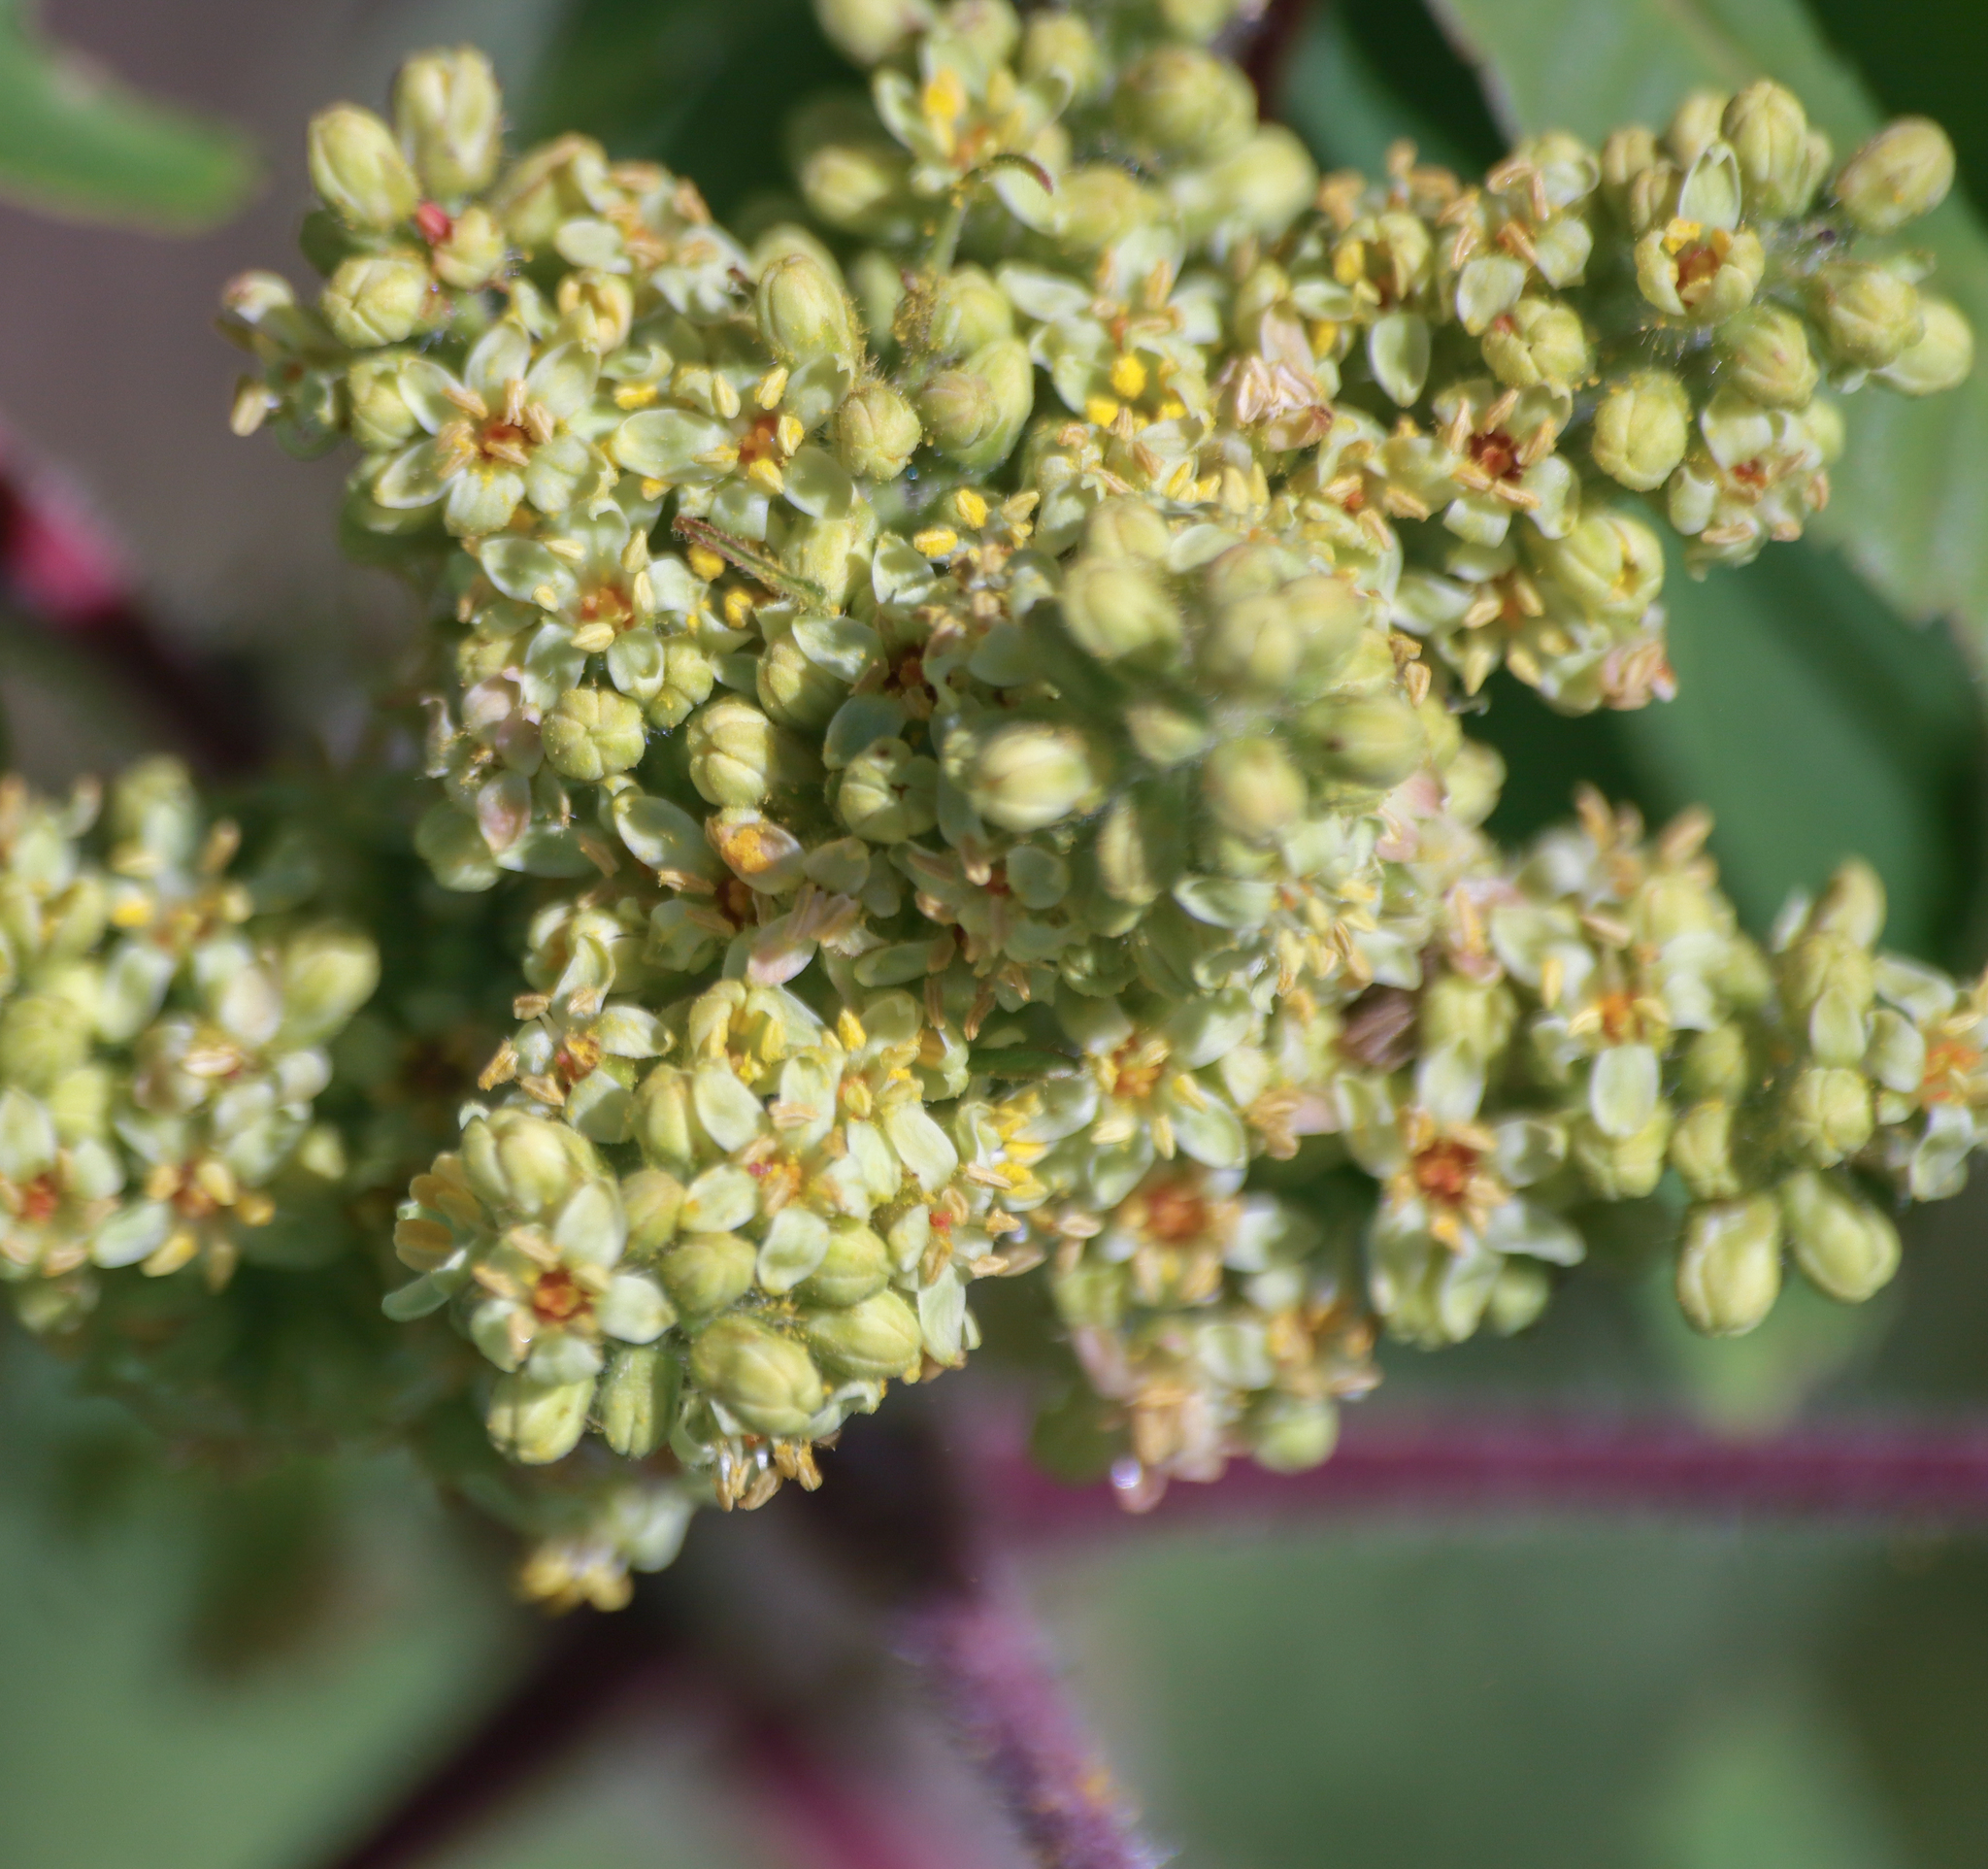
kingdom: Plantae
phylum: Tracheophyta
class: Magnoliopsida
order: Sapindales
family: Anacardiaceae
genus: Rhus
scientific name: Rhus typhina
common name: Staghorn sumac
